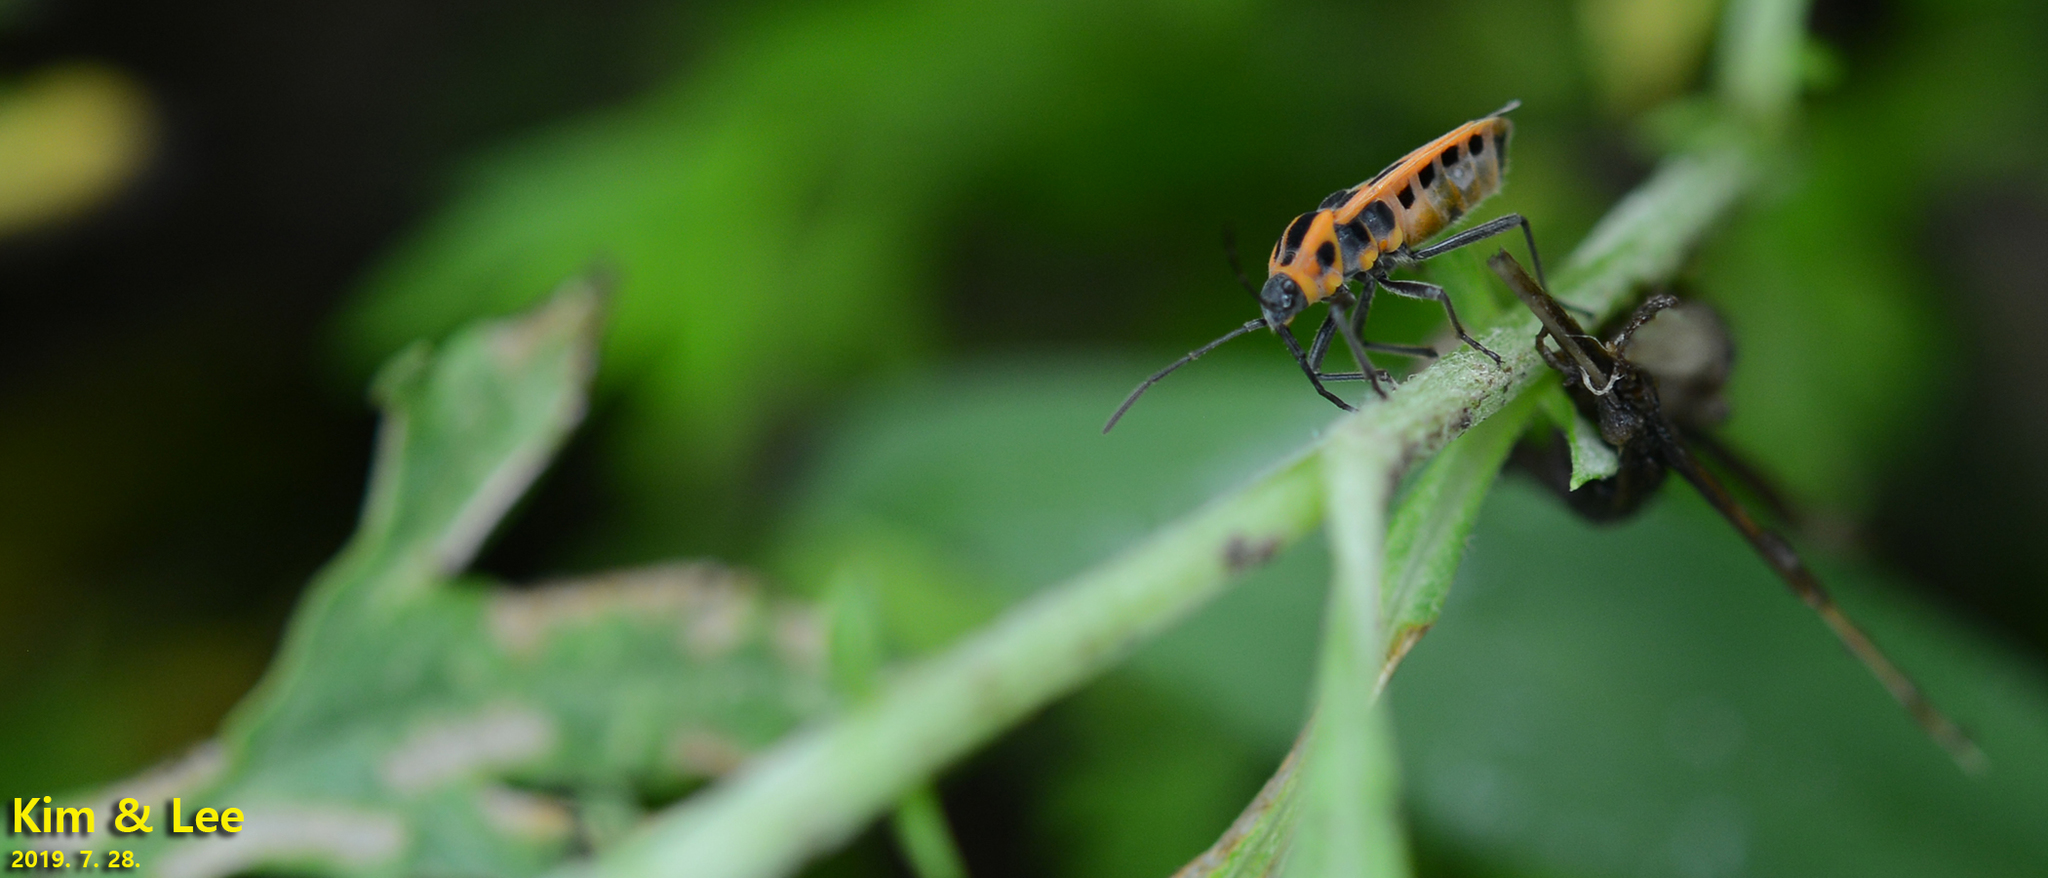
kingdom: Animalia
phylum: Arthropoda
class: Insecta
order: Hemiptera
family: Lygaeidae
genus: Tropidothorax
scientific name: Tropidothorax cruciger
